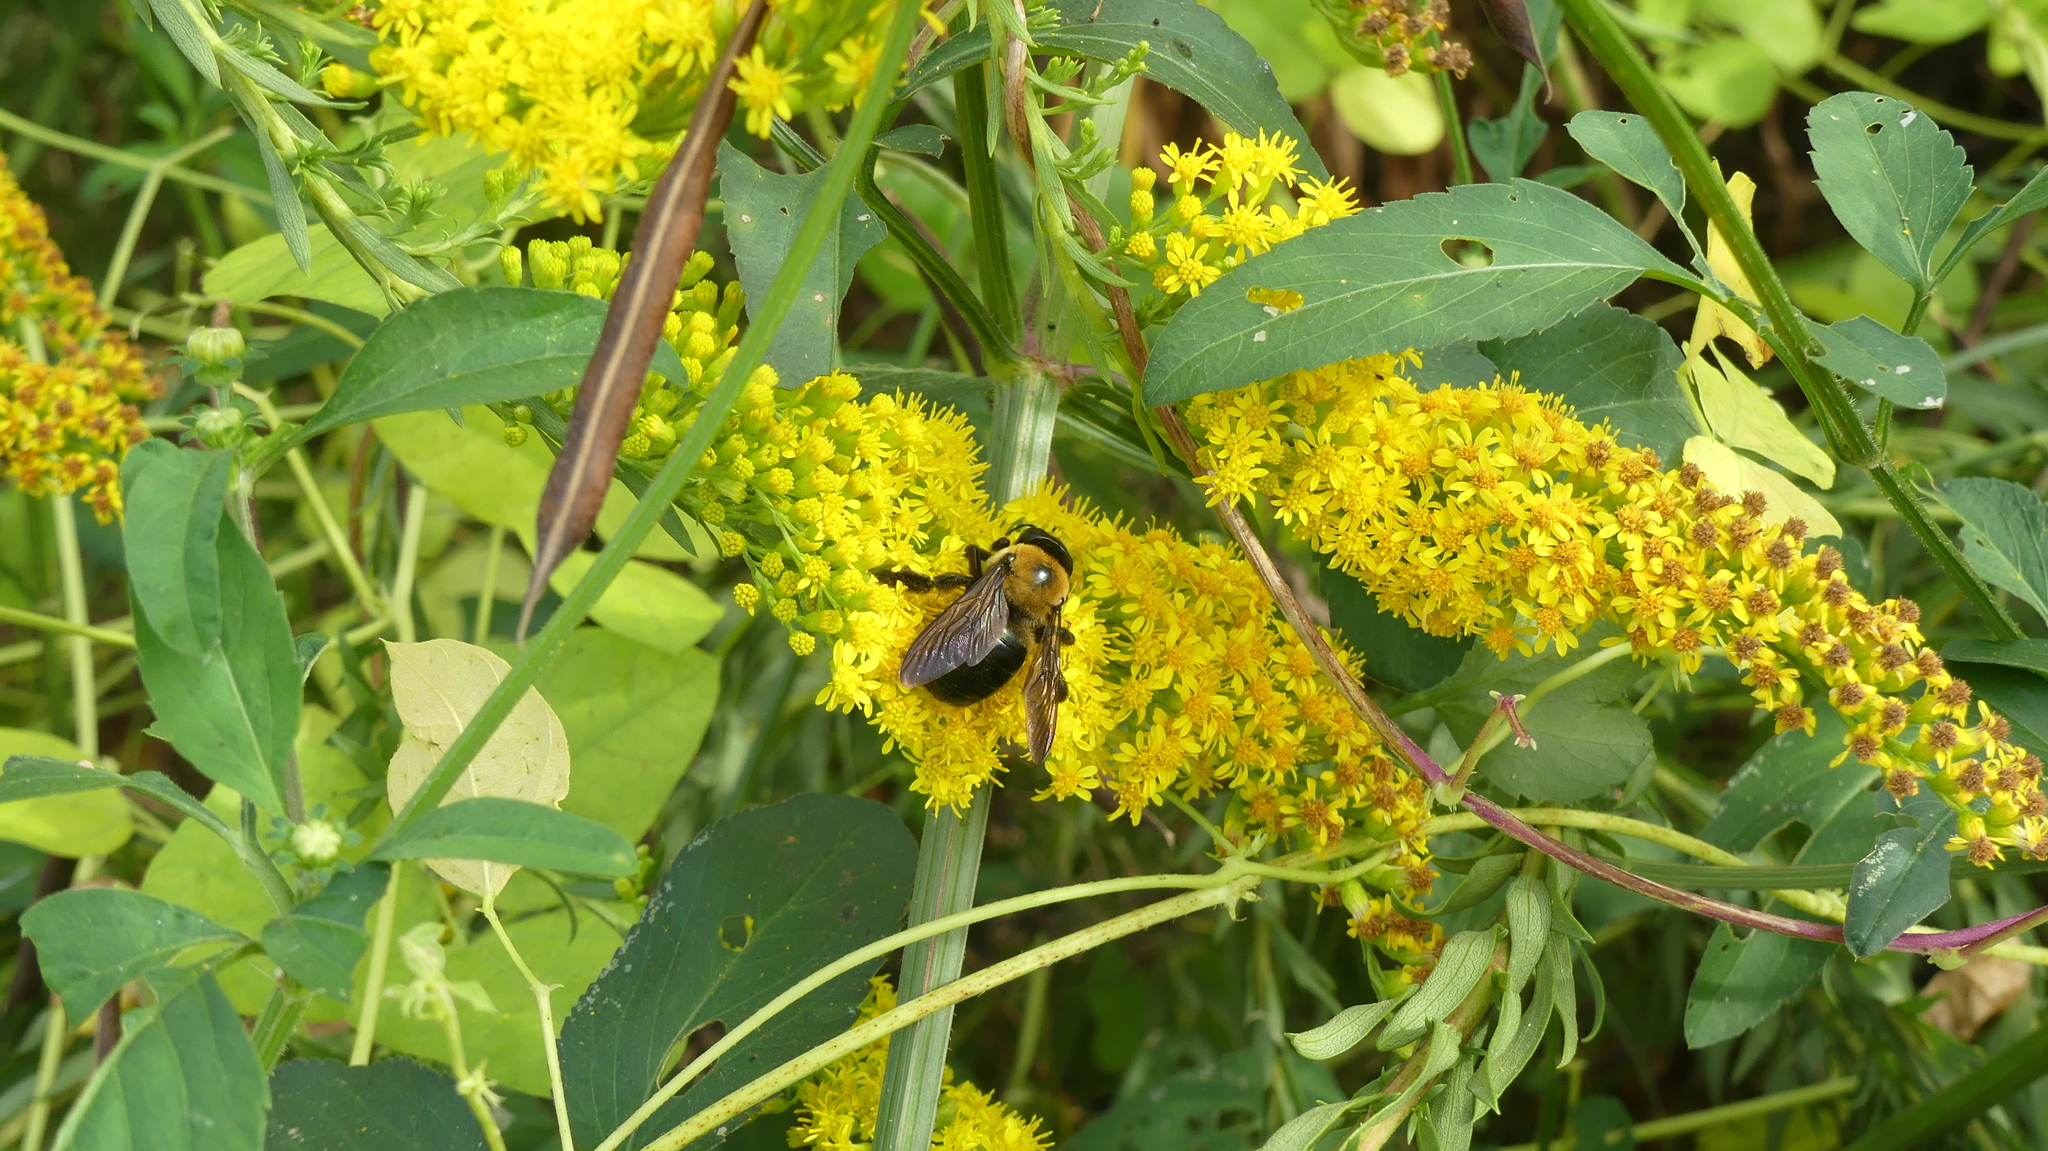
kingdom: Animalia
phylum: Arthropoda
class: Insecta
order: Hymenoptera
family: Apidae
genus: Xylocopa
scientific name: Xylocopa virginica
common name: Carpenter bee
